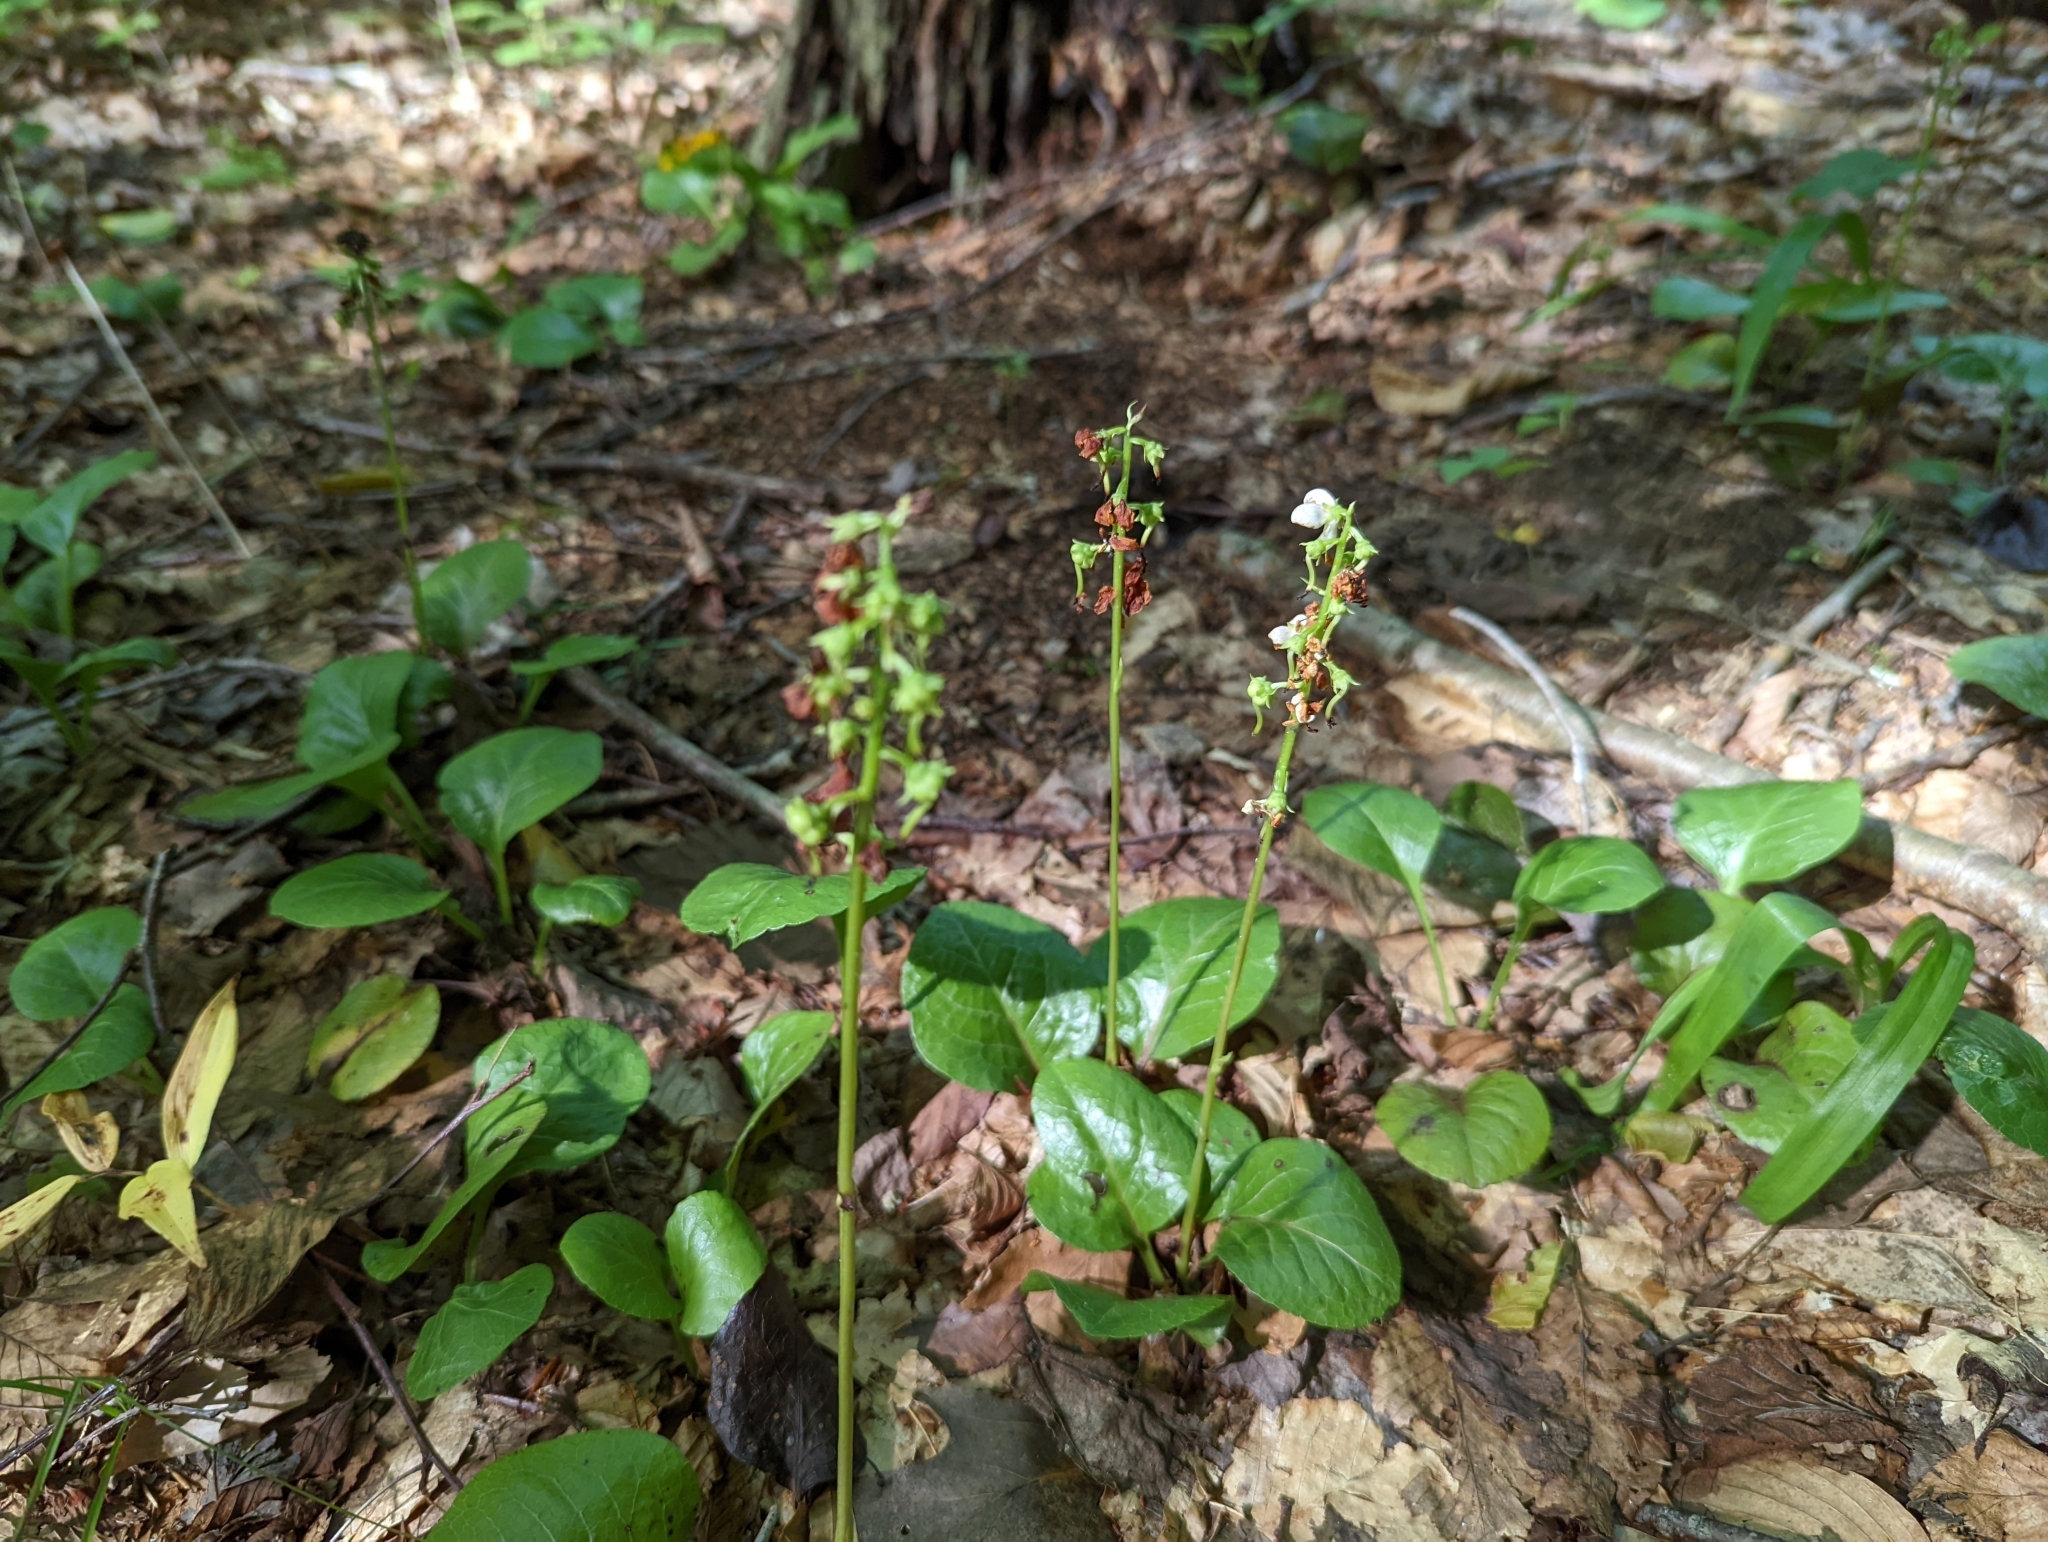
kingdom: Plantae
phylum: Tracheophyta
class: Magnoliopsida
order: Ericales
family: Ericaceae
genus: Pyrola
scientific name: Pyrola elliptica
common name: Shinleaf
